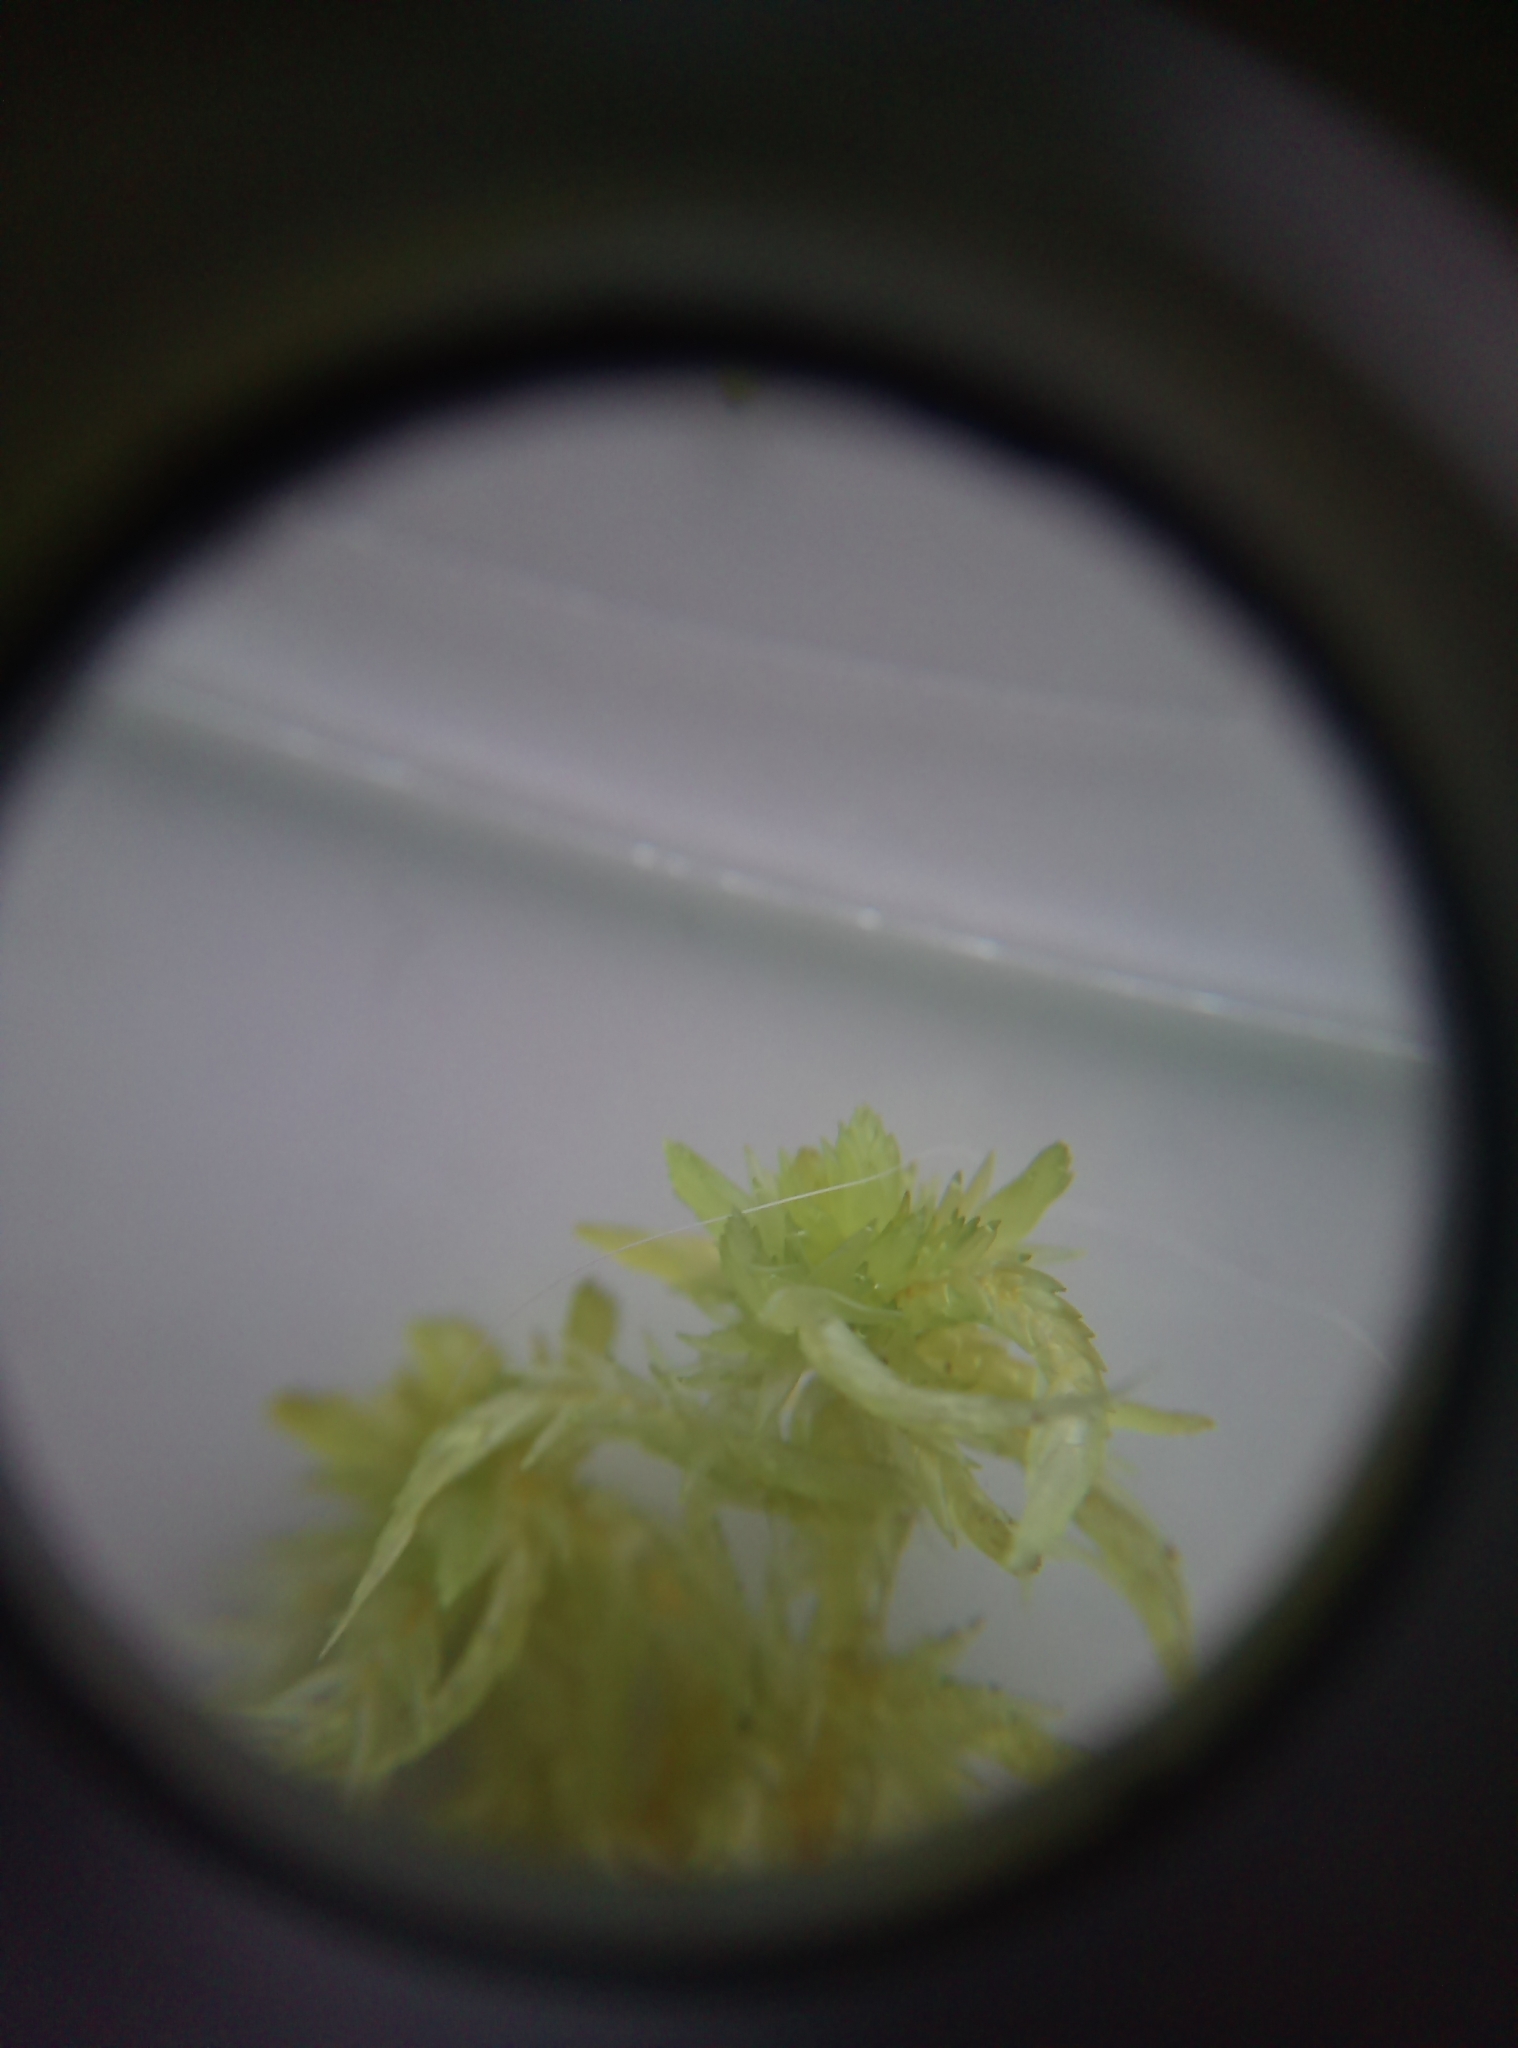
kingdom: Plantae
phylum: Bryophyta
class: Sphagnopsida
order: Sphagnales
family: Sphagnaceae
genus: Sphagnum
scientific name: Sphagnum inundatum
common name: Lesser cow-horn bog-moss
